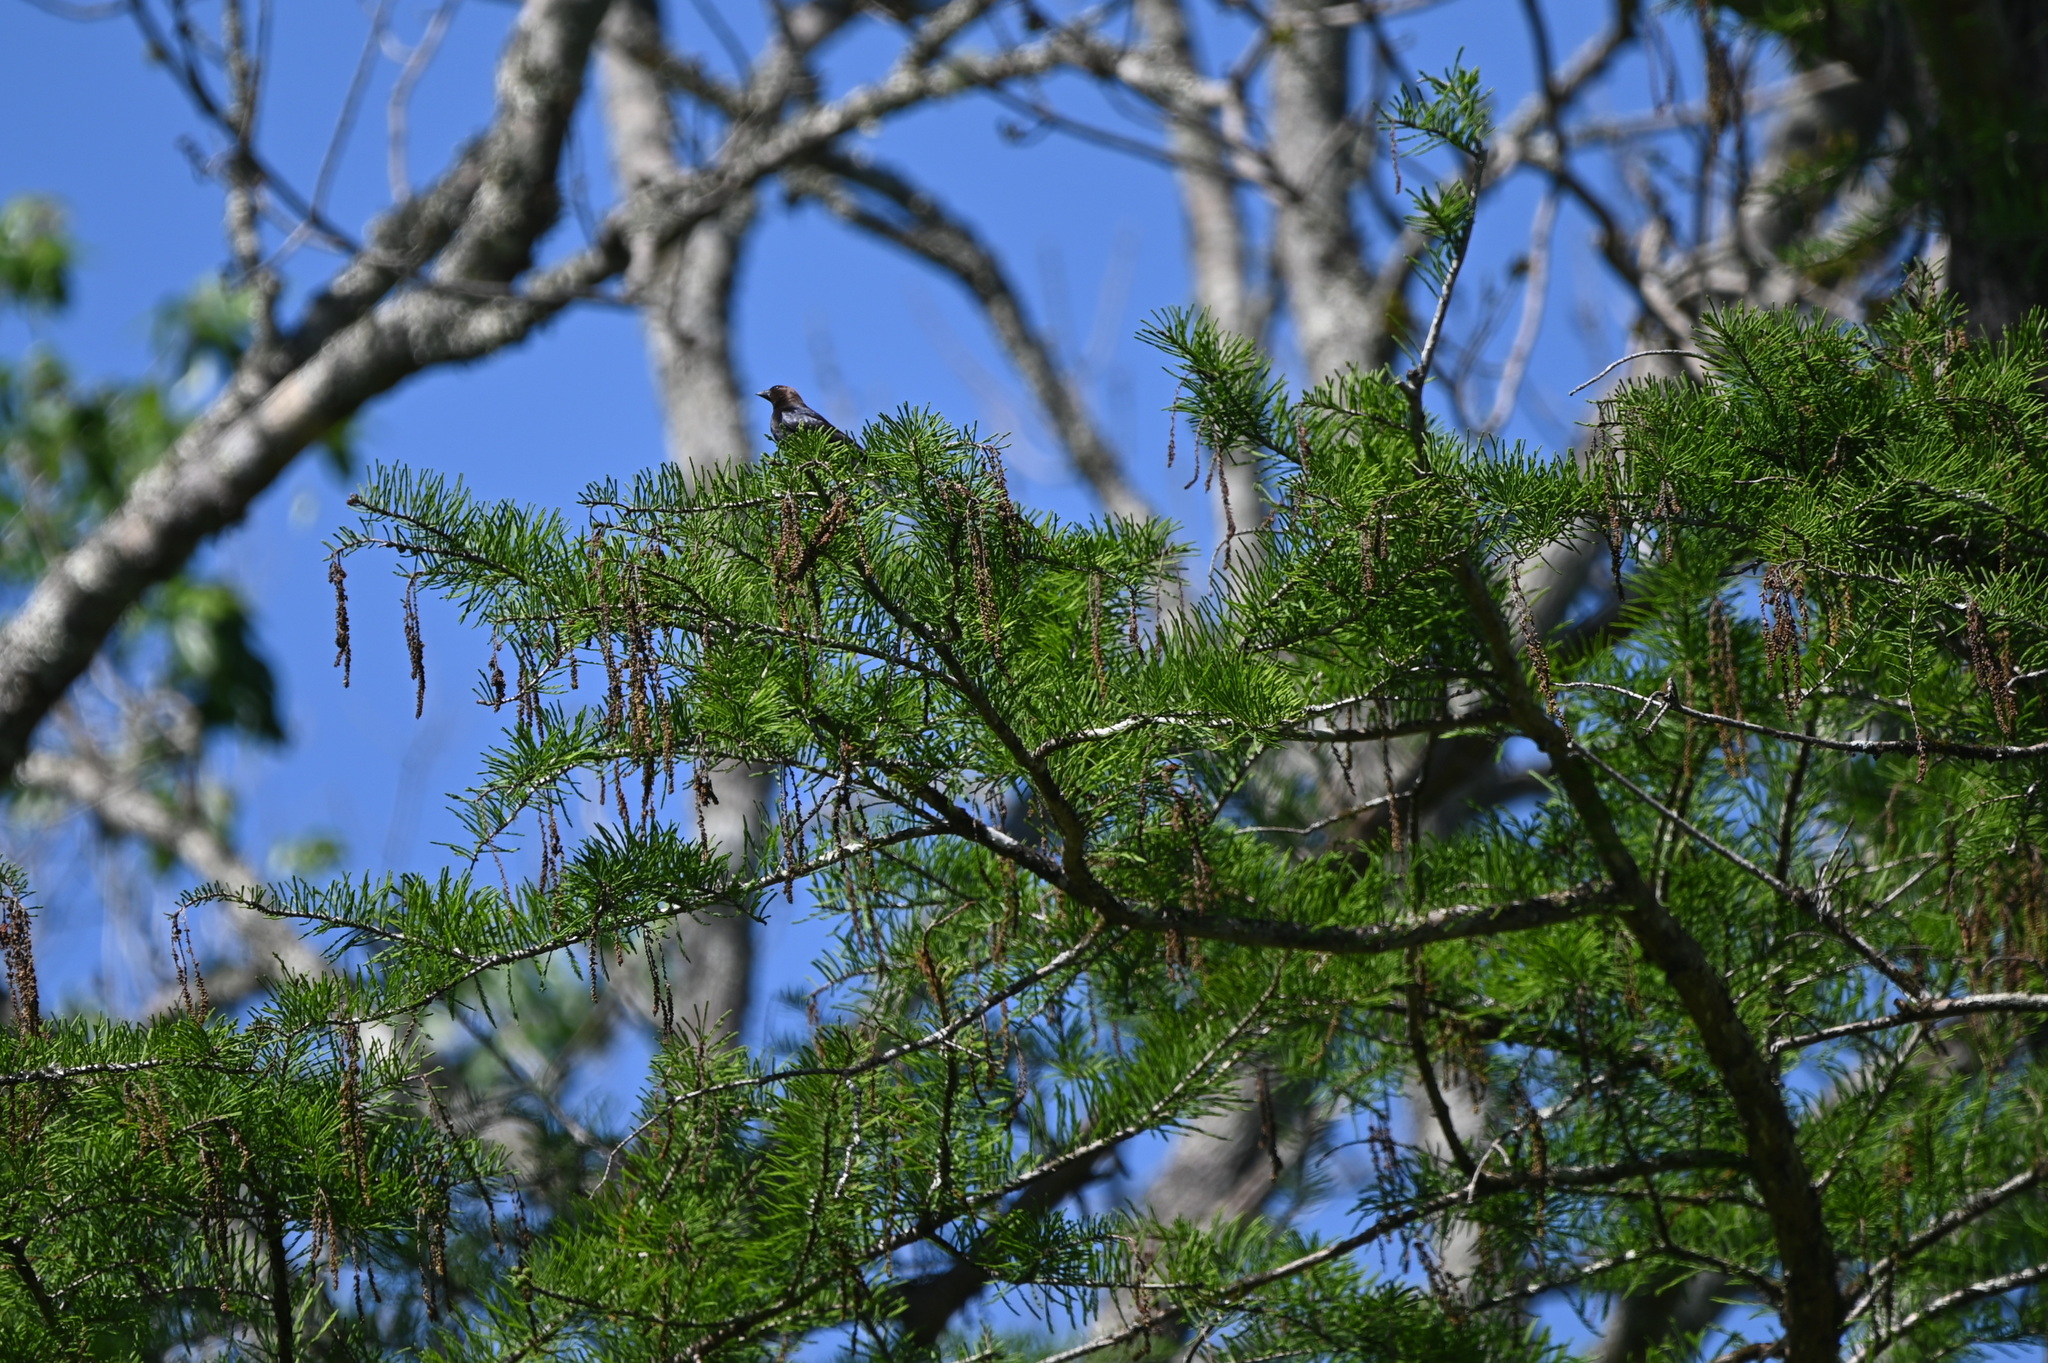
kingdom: Animalia
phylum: Chordata
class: Aves
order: Passeriformes
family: Icteridae
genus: Molothrus
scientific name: Molothrus ater
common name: Brown-headed cowbird
